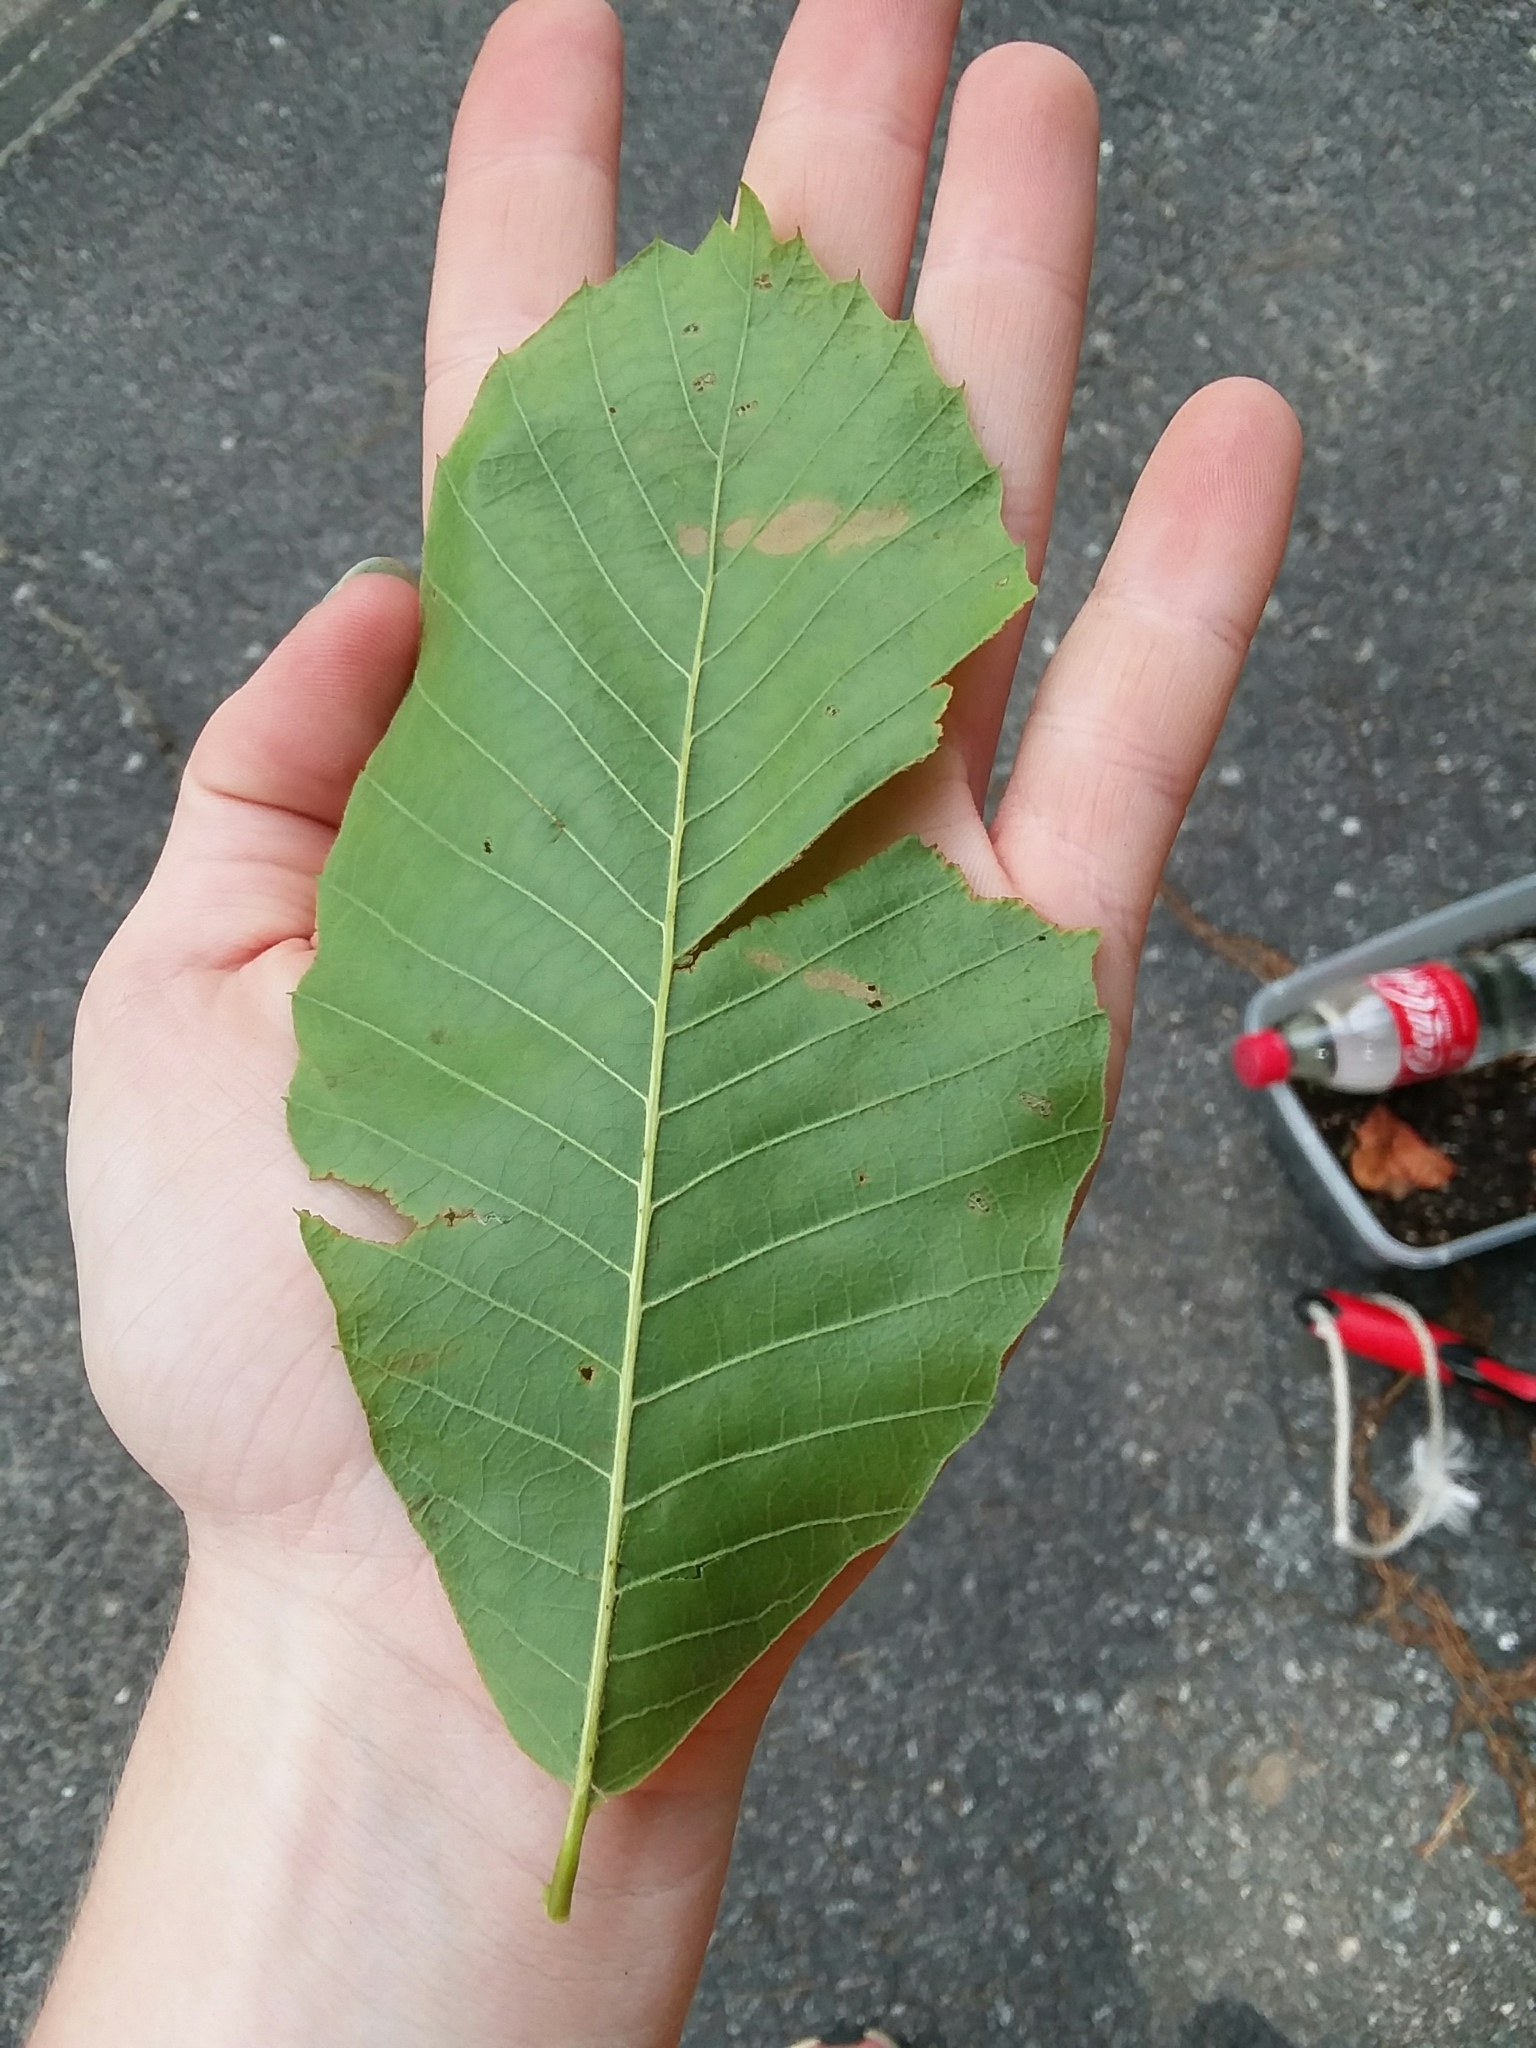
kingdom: Plantae
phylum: Tracheophyta
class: Magnoliopsida
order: Fagales
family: Fagaceae
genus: Castanea
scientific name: Castanea pumila
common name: Chinkapin
